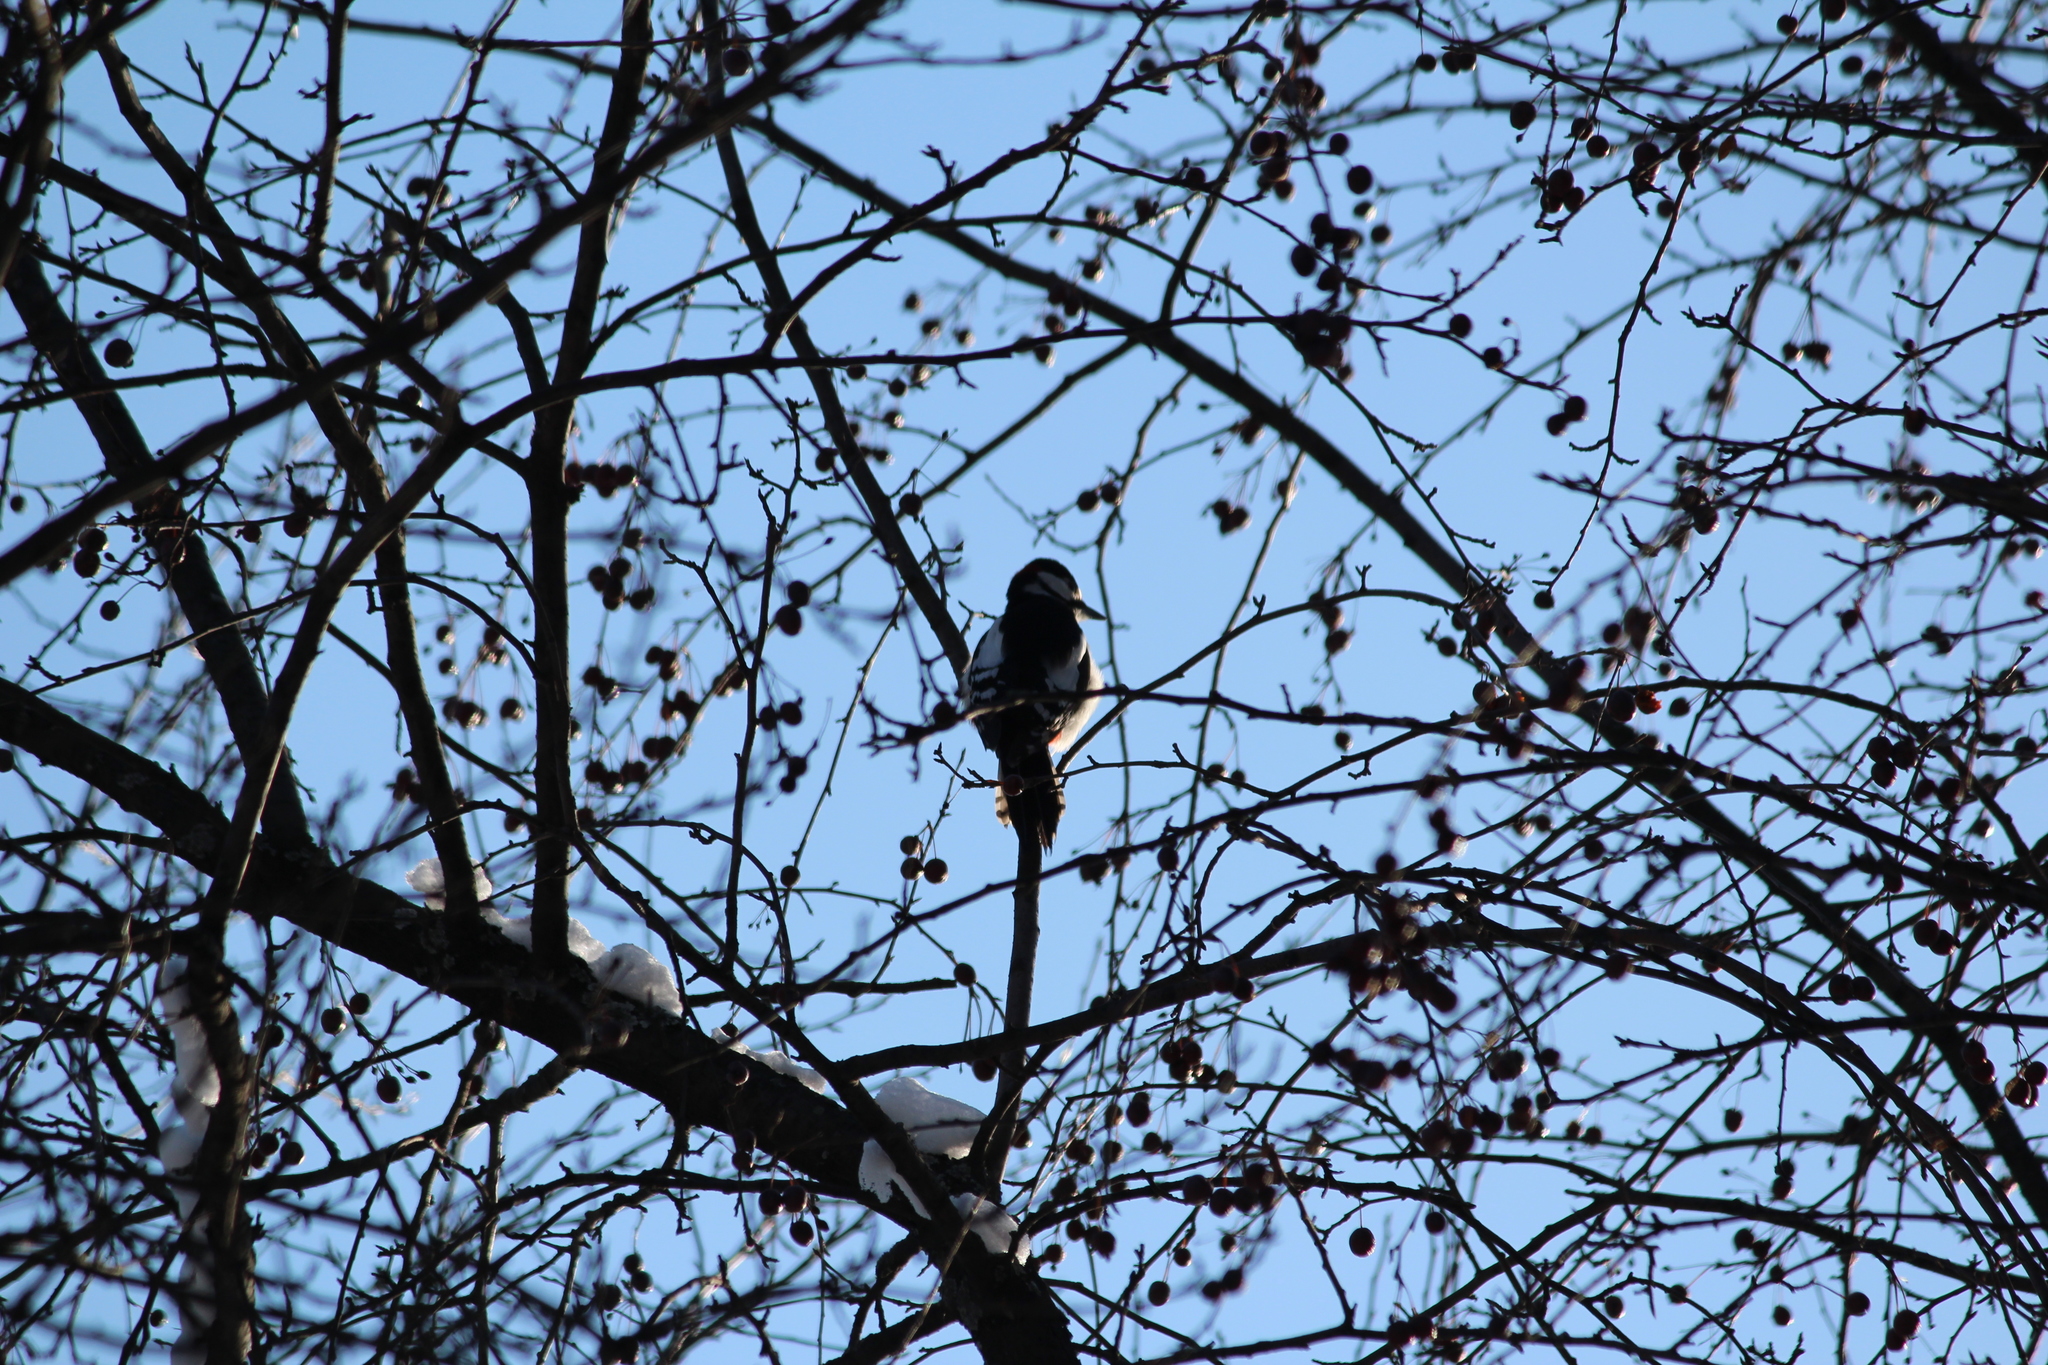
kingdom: Animalia
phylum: Chordata
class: Aves
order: Piciformes
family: Picidae
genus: Dendrocopos
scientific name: Dendrocopos major
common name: Great spotted woodpecker
